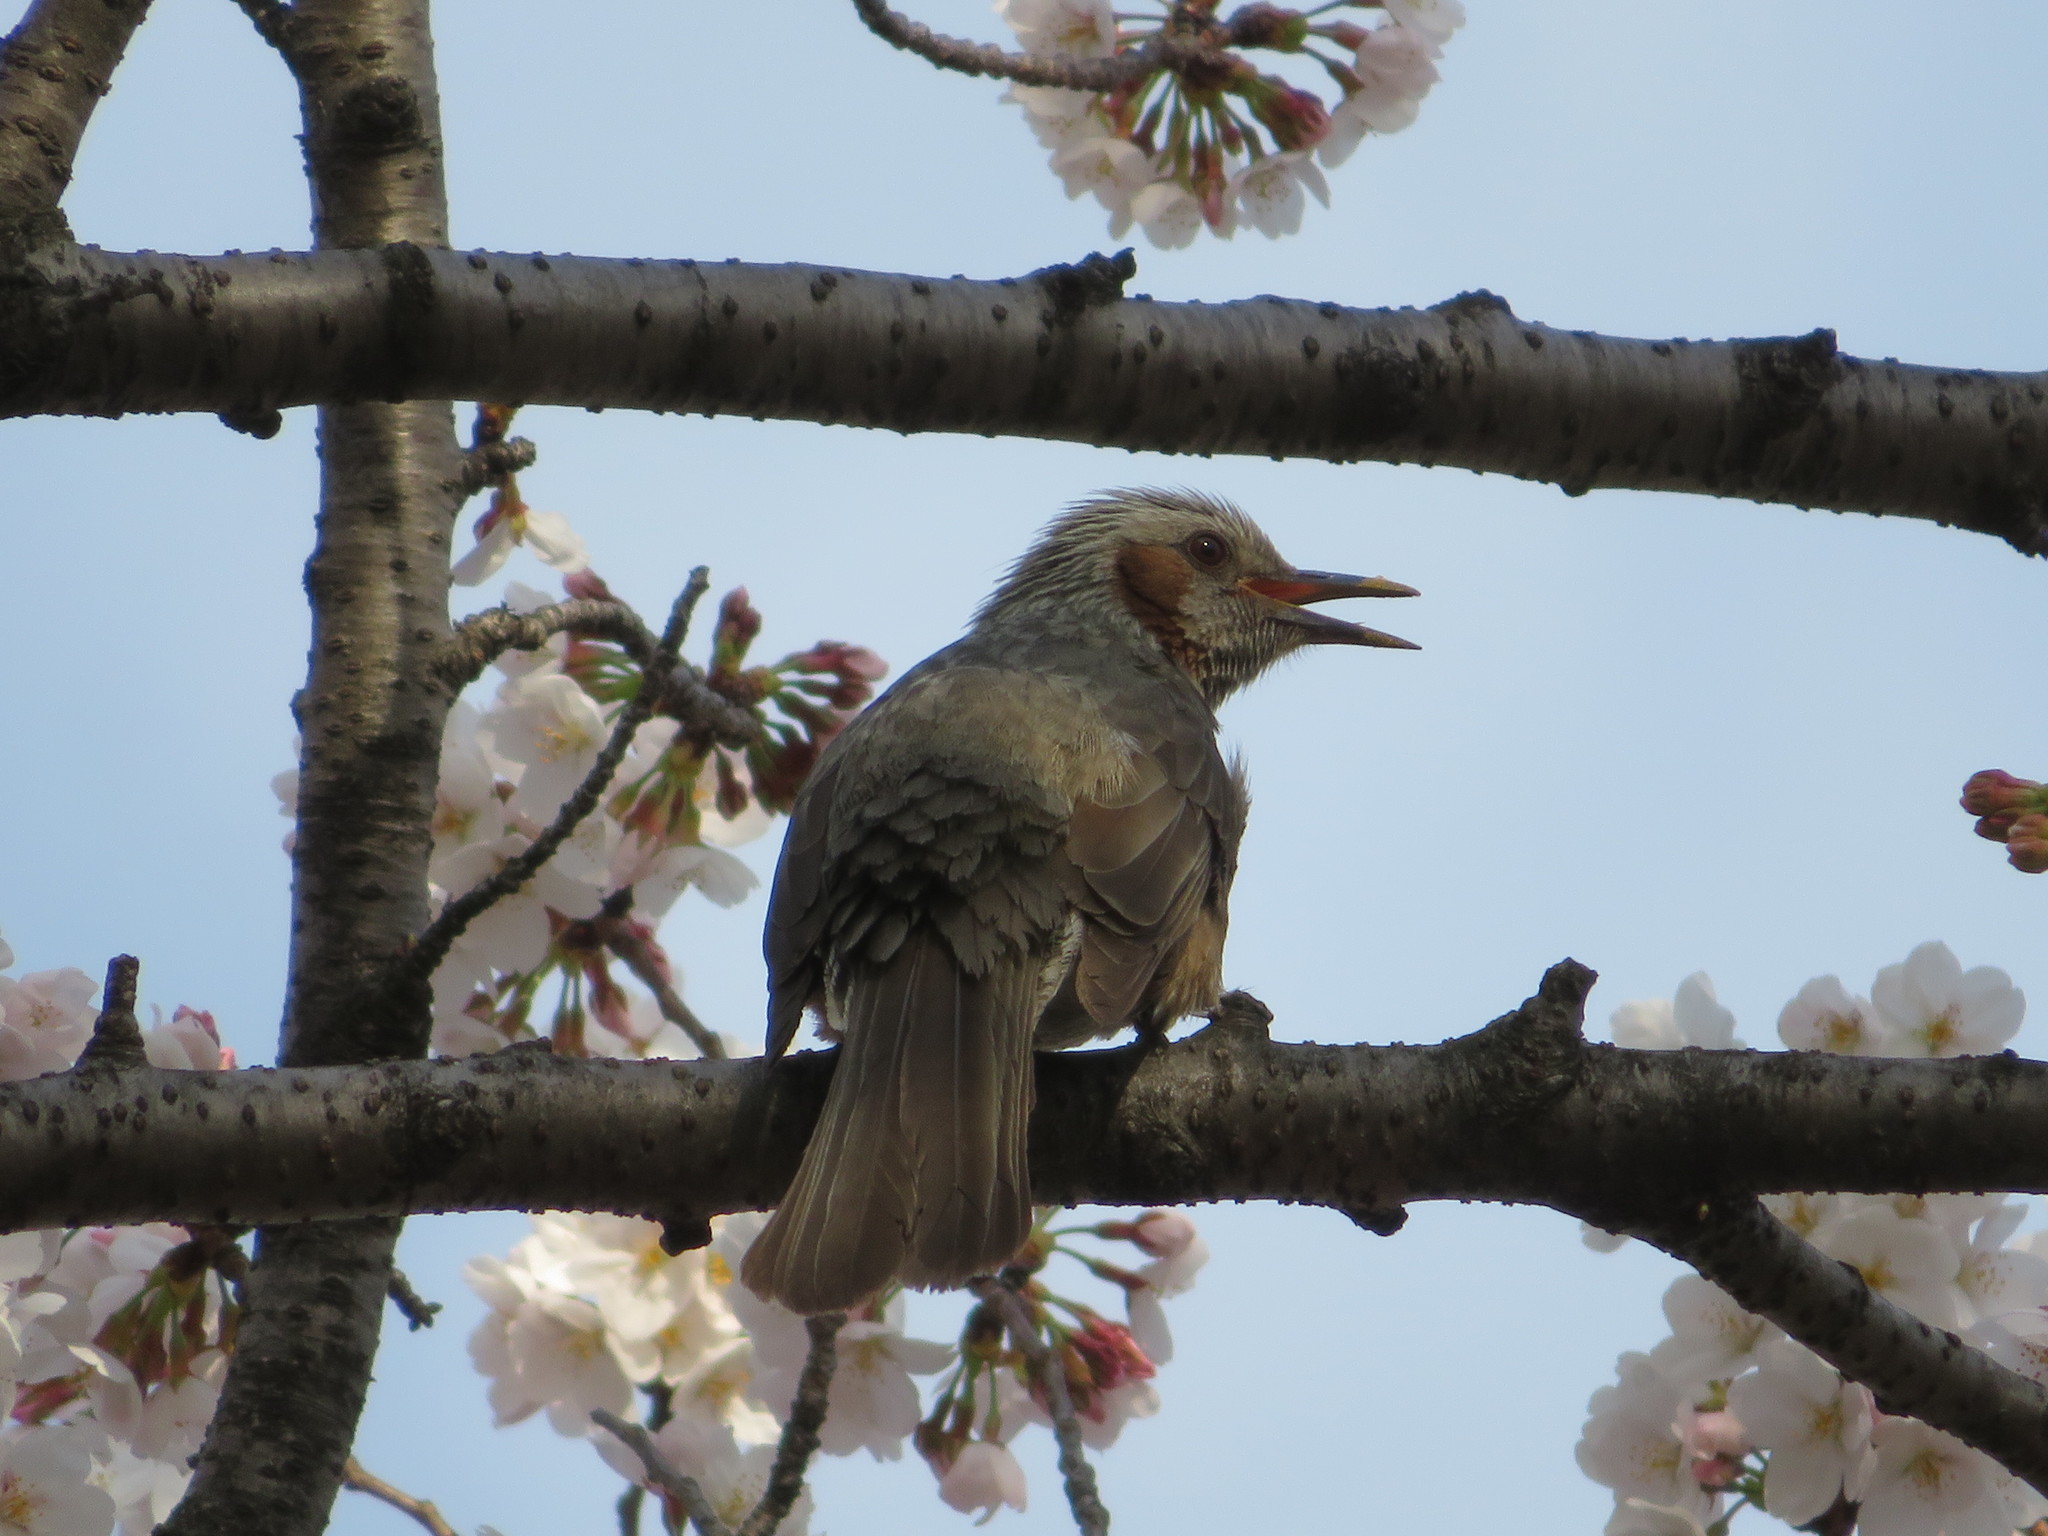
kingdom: Animalia
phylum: Chordata
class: Aves
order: Passeriformes
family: Pycnonotidae
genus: Hypsipetes
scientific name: Hypsipetes amaurotis
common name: Brown-eared bulbul
